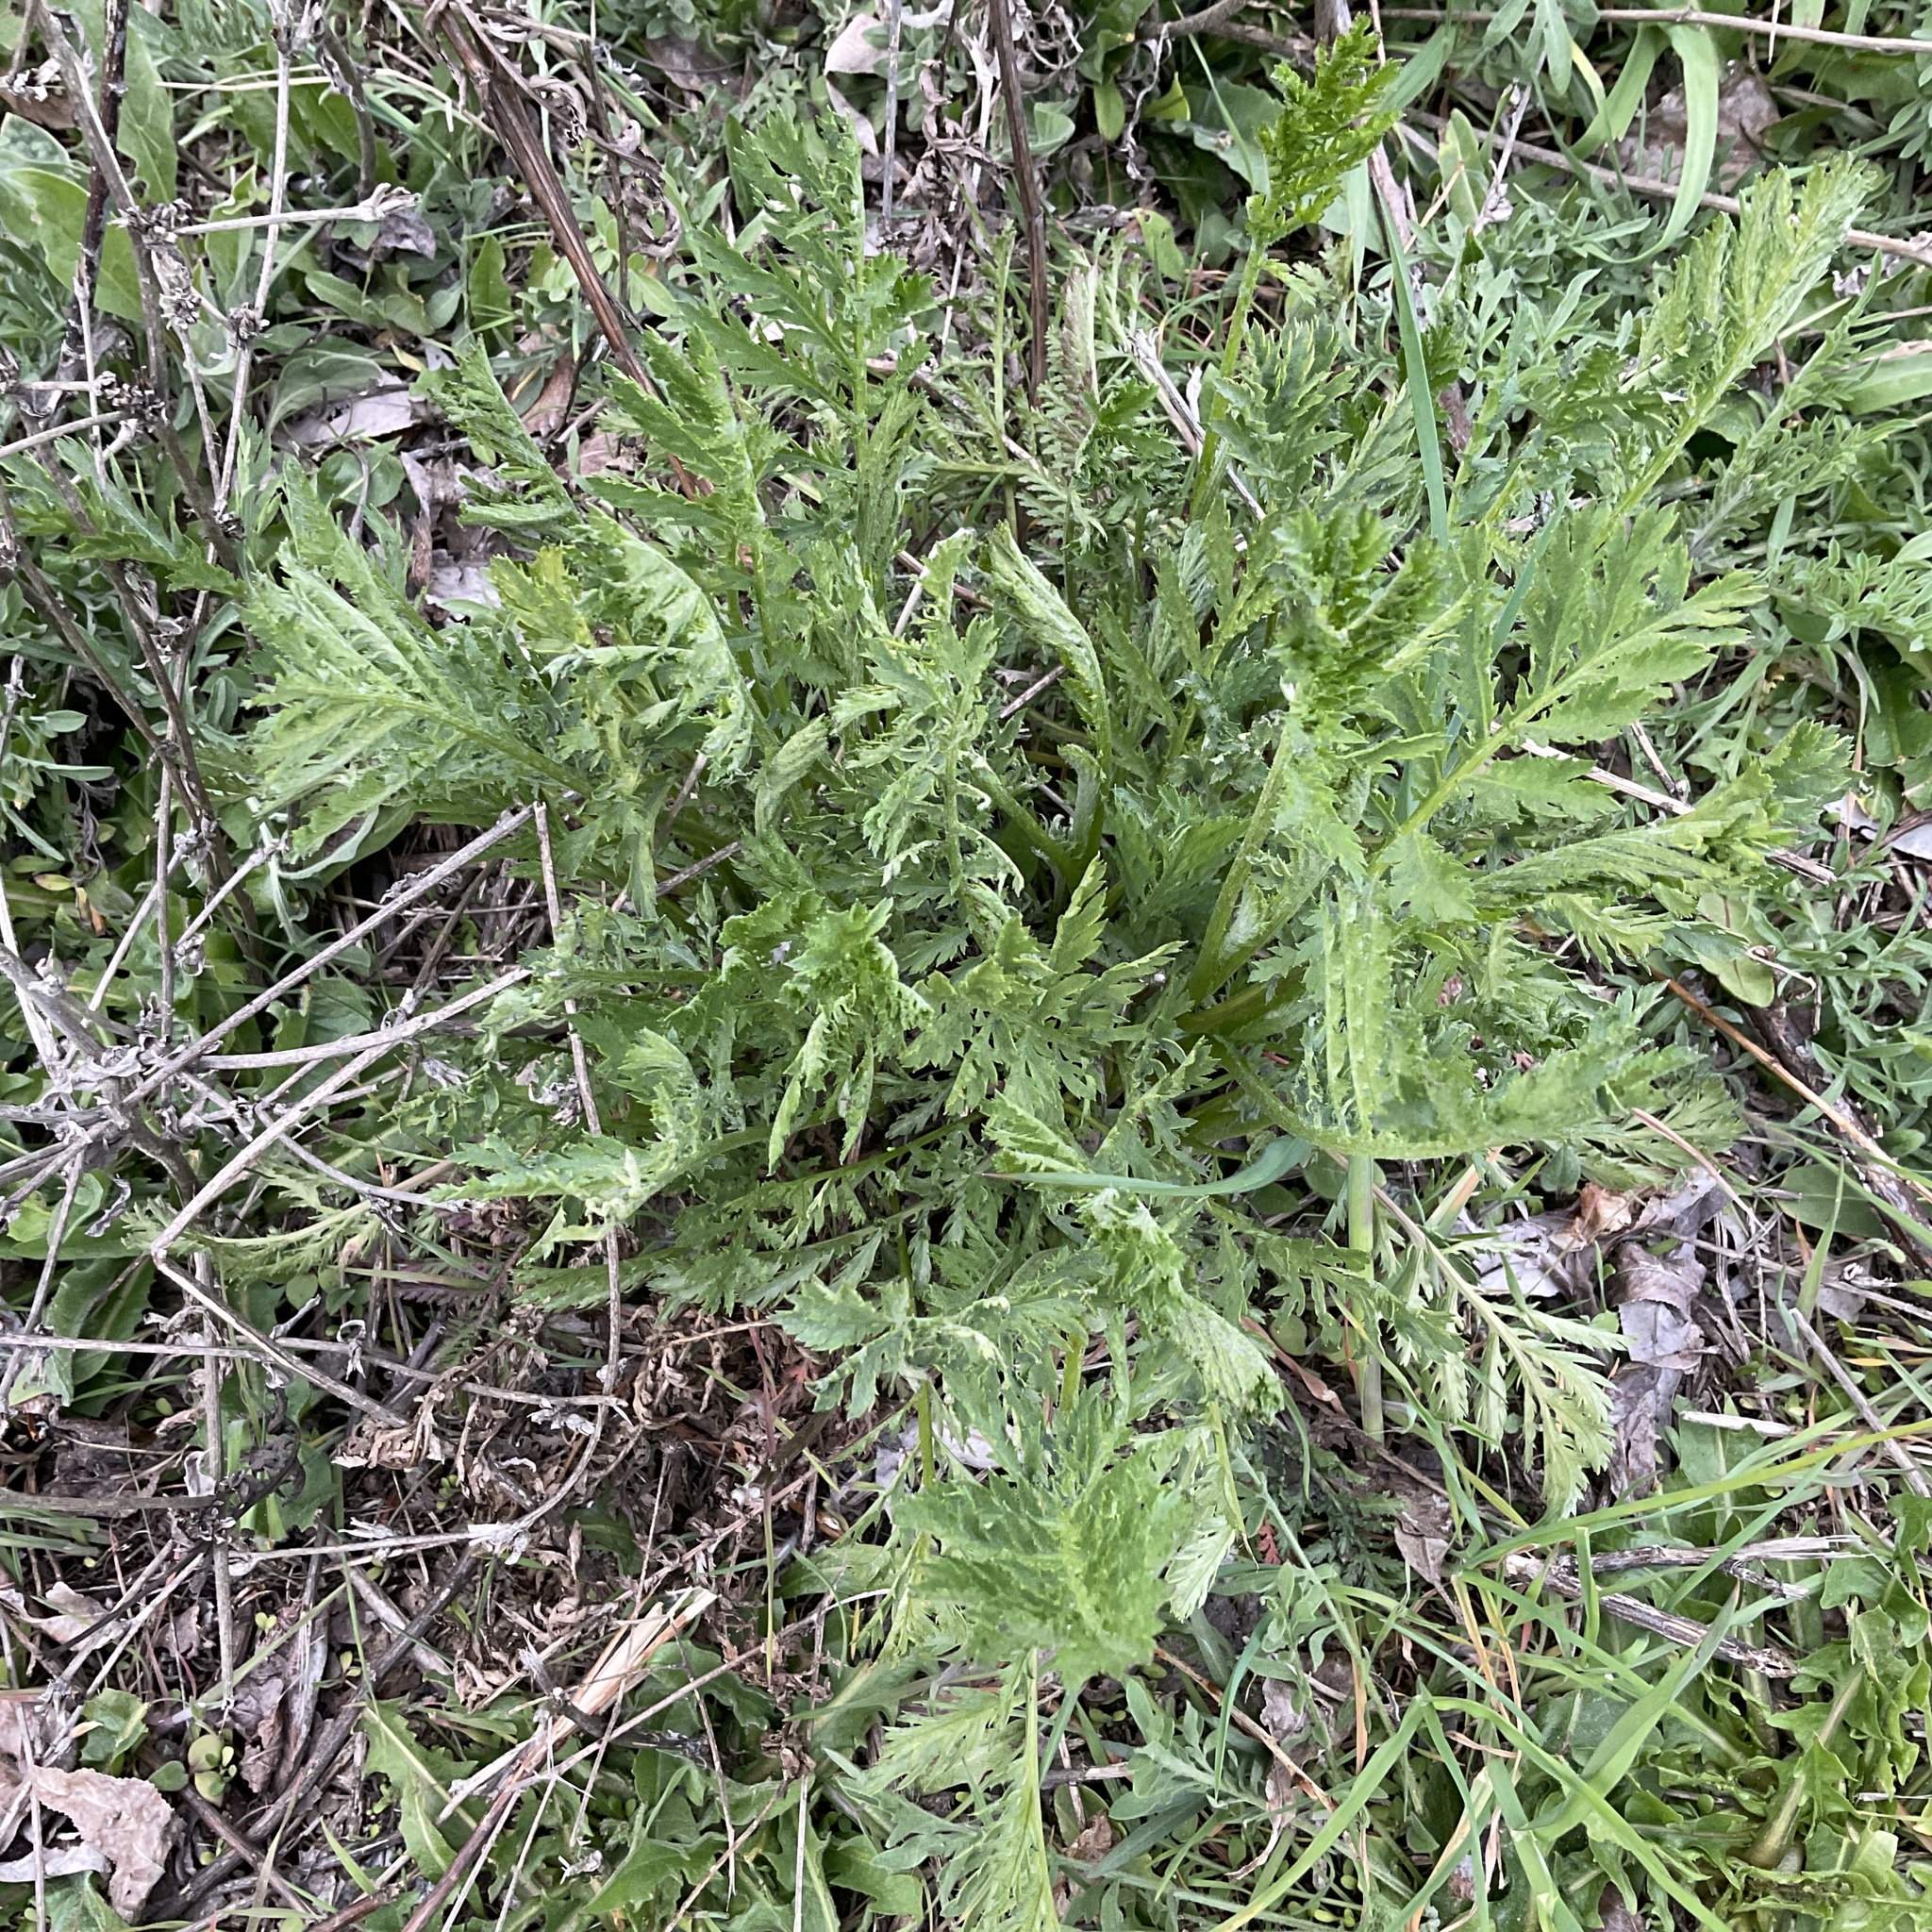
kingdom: Plantae
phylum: Tracheophyta
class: Magnoliopsida
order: Asterales
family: Asteraceae
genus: Tanacetum
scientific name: Tanacetum vulgare
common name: Common tansy
